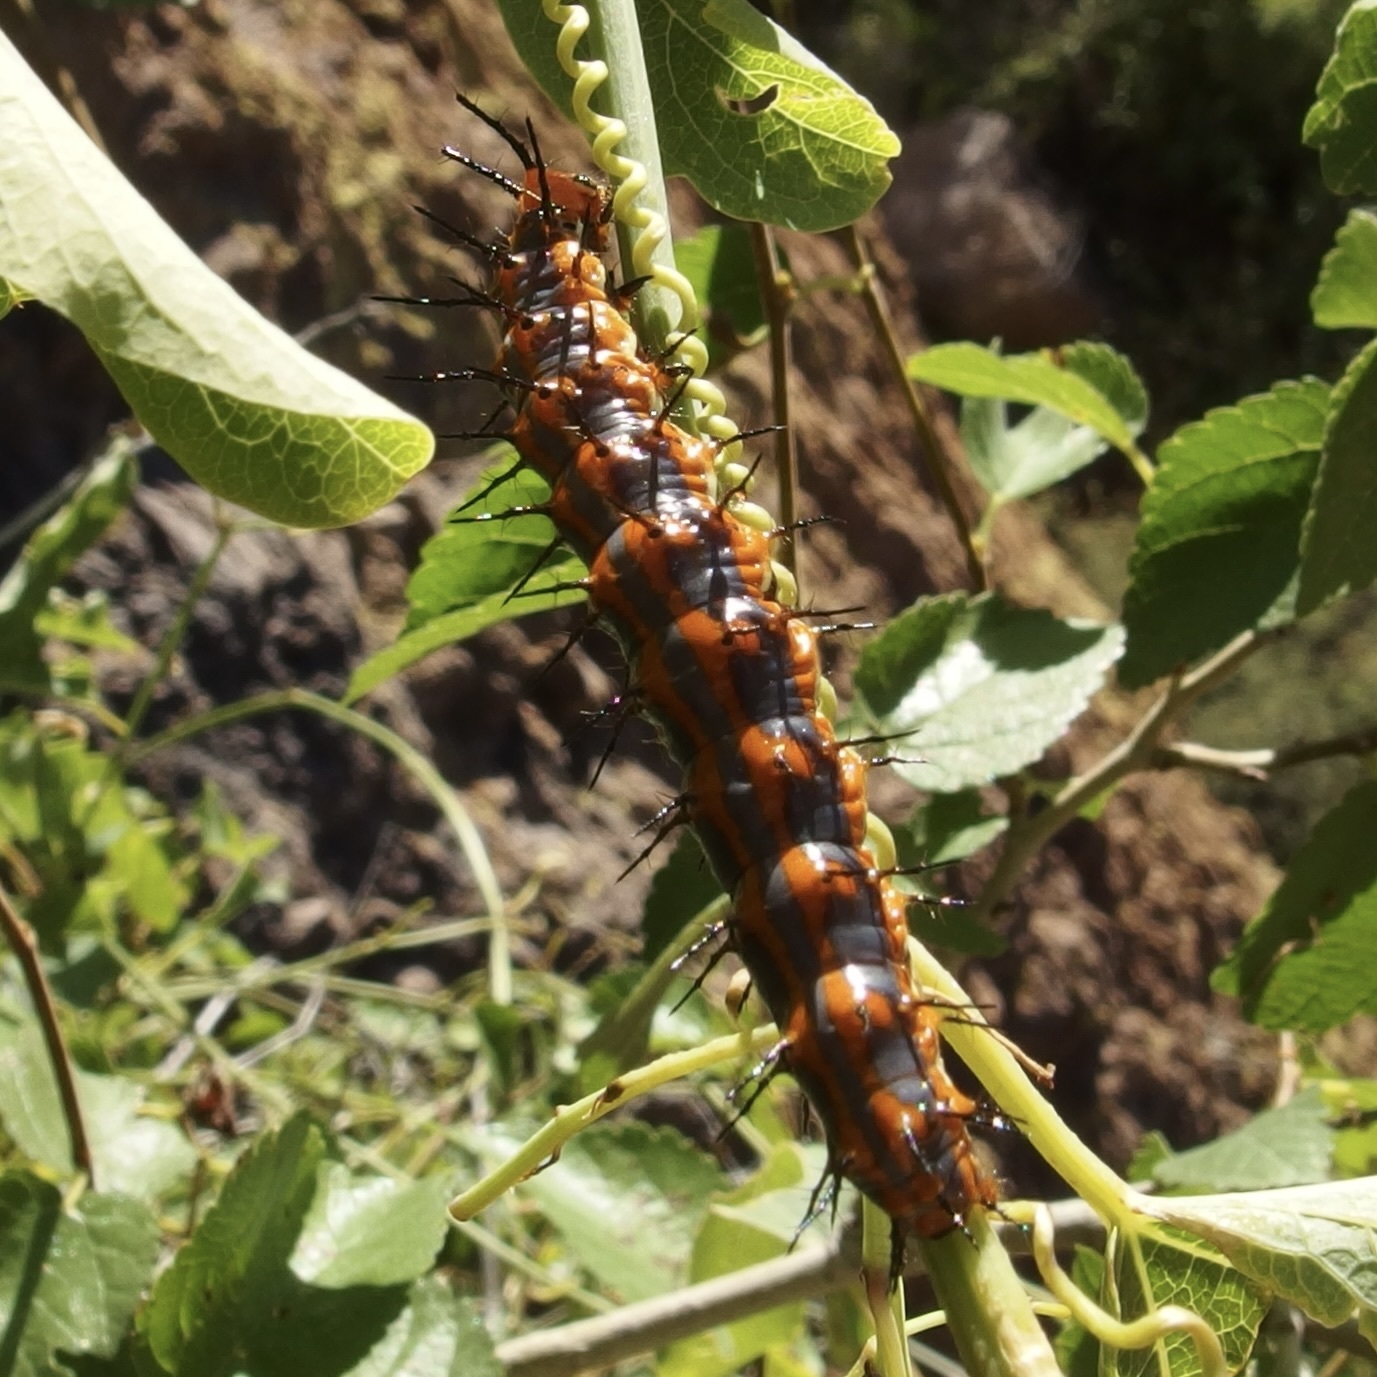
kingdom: Animalia
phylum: Arthropoda
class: Insecta
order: Lepidoptera
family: Nymphalidae
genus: Dione
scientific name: Dione vanillae
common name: Gulf fritillary
